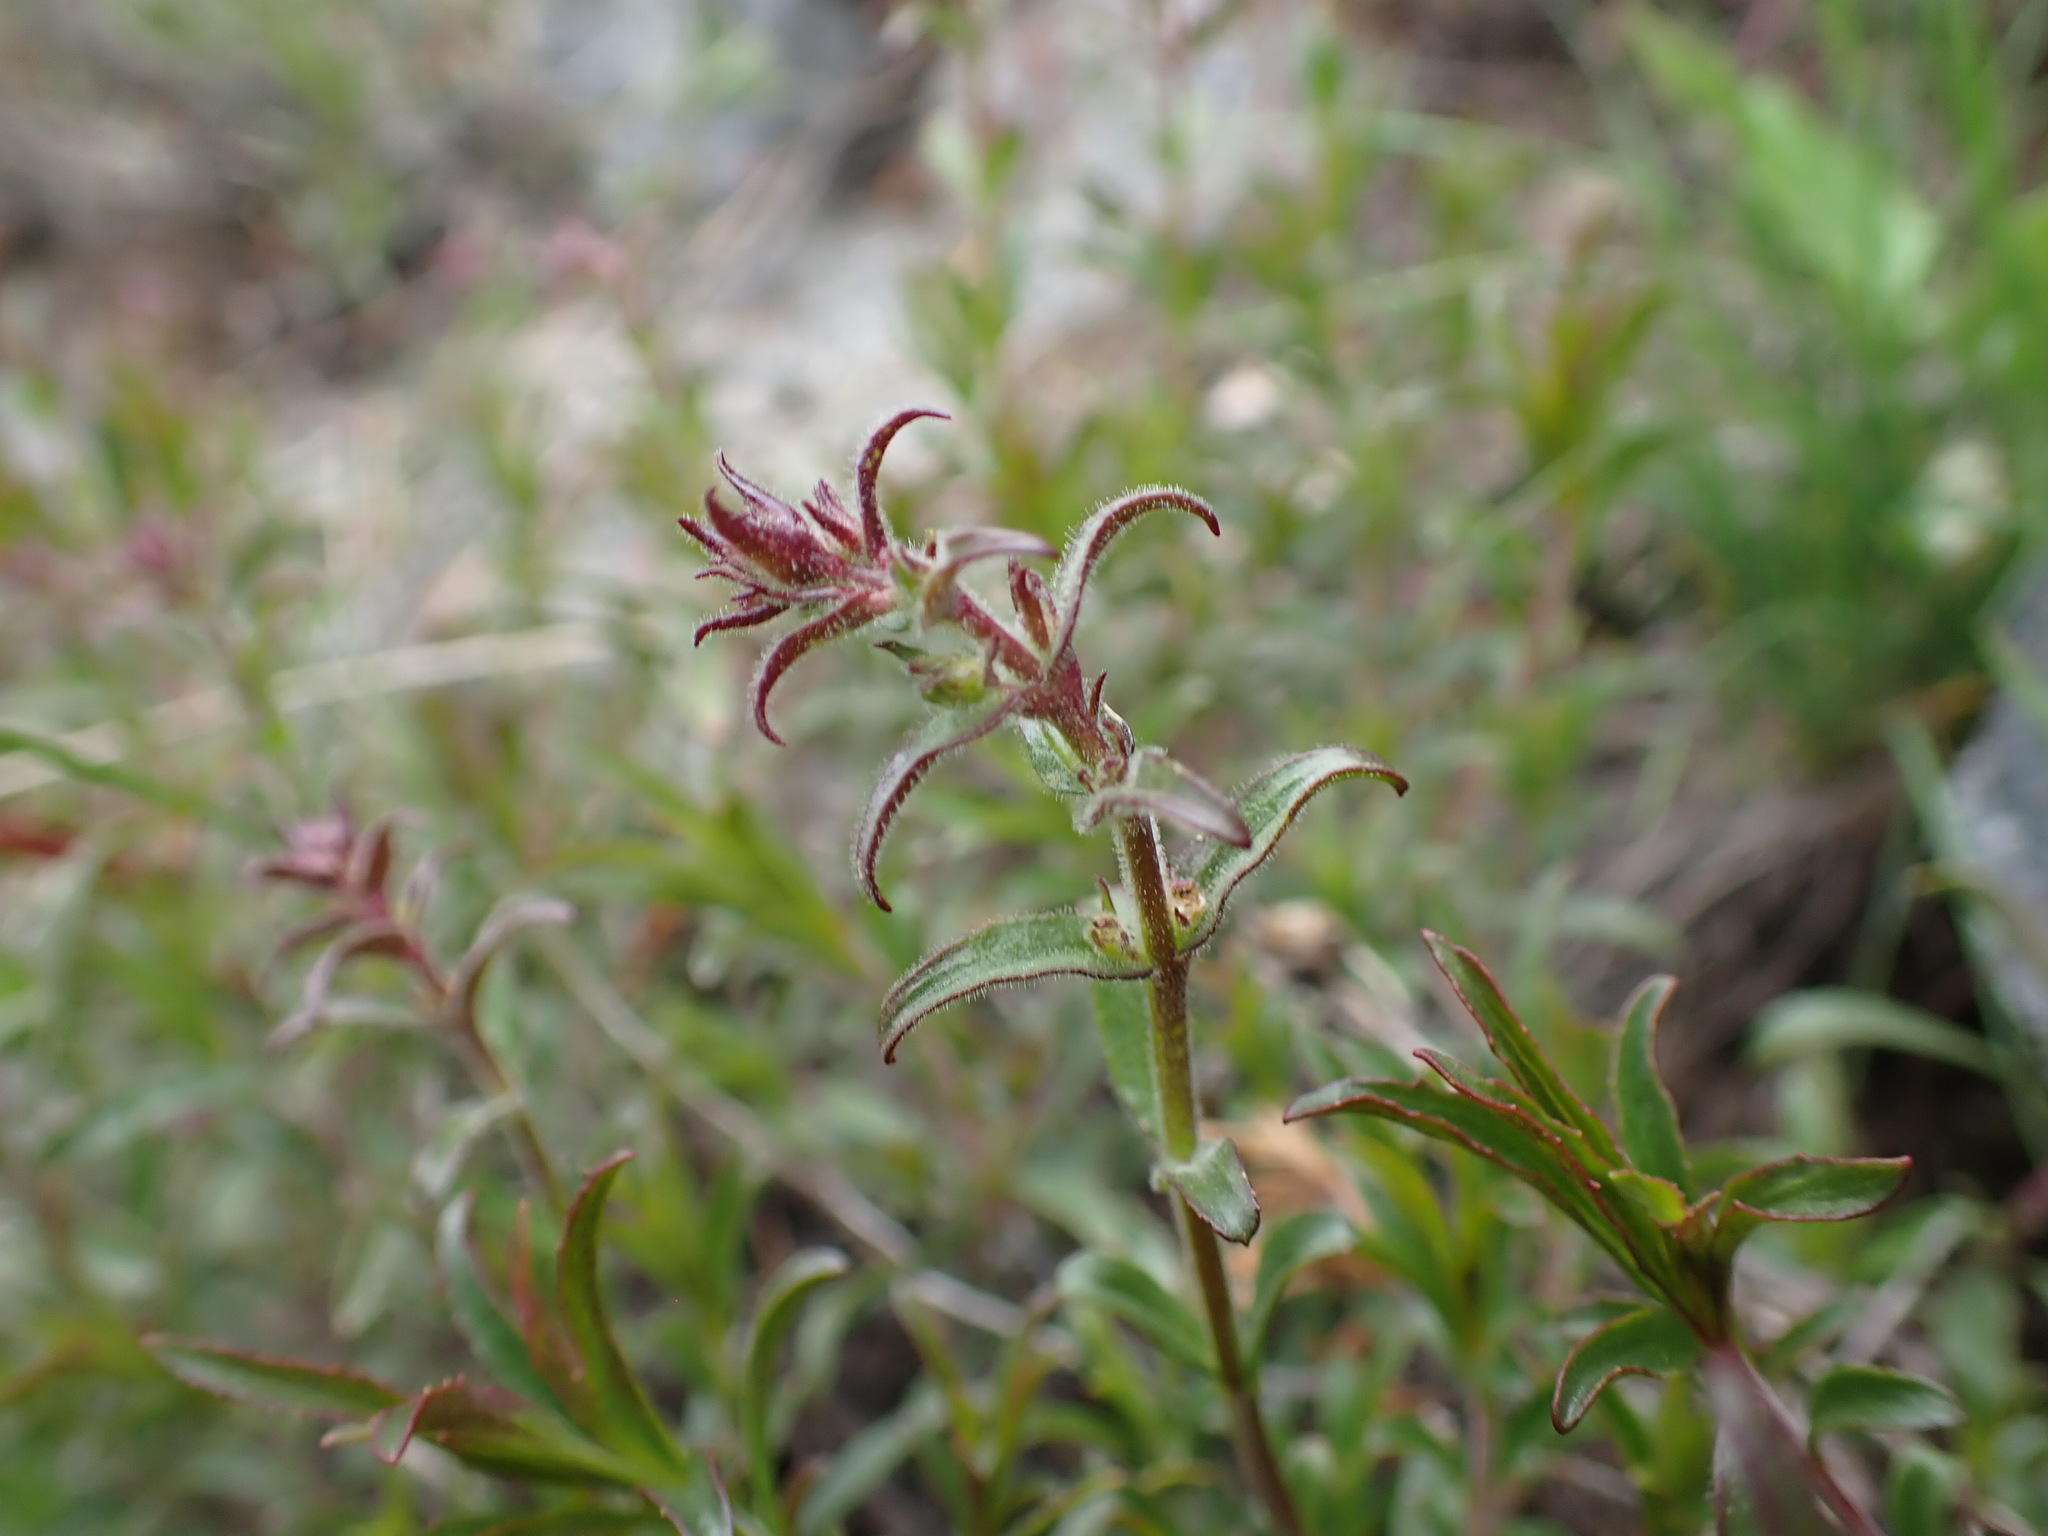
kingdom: Plantae
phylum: Tracheophyta
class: Magnoliopsida
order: Lamiales
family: Plantaginaceae
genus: Penstemon
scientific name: Penstemon fruticosus
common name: Bush penstemon
